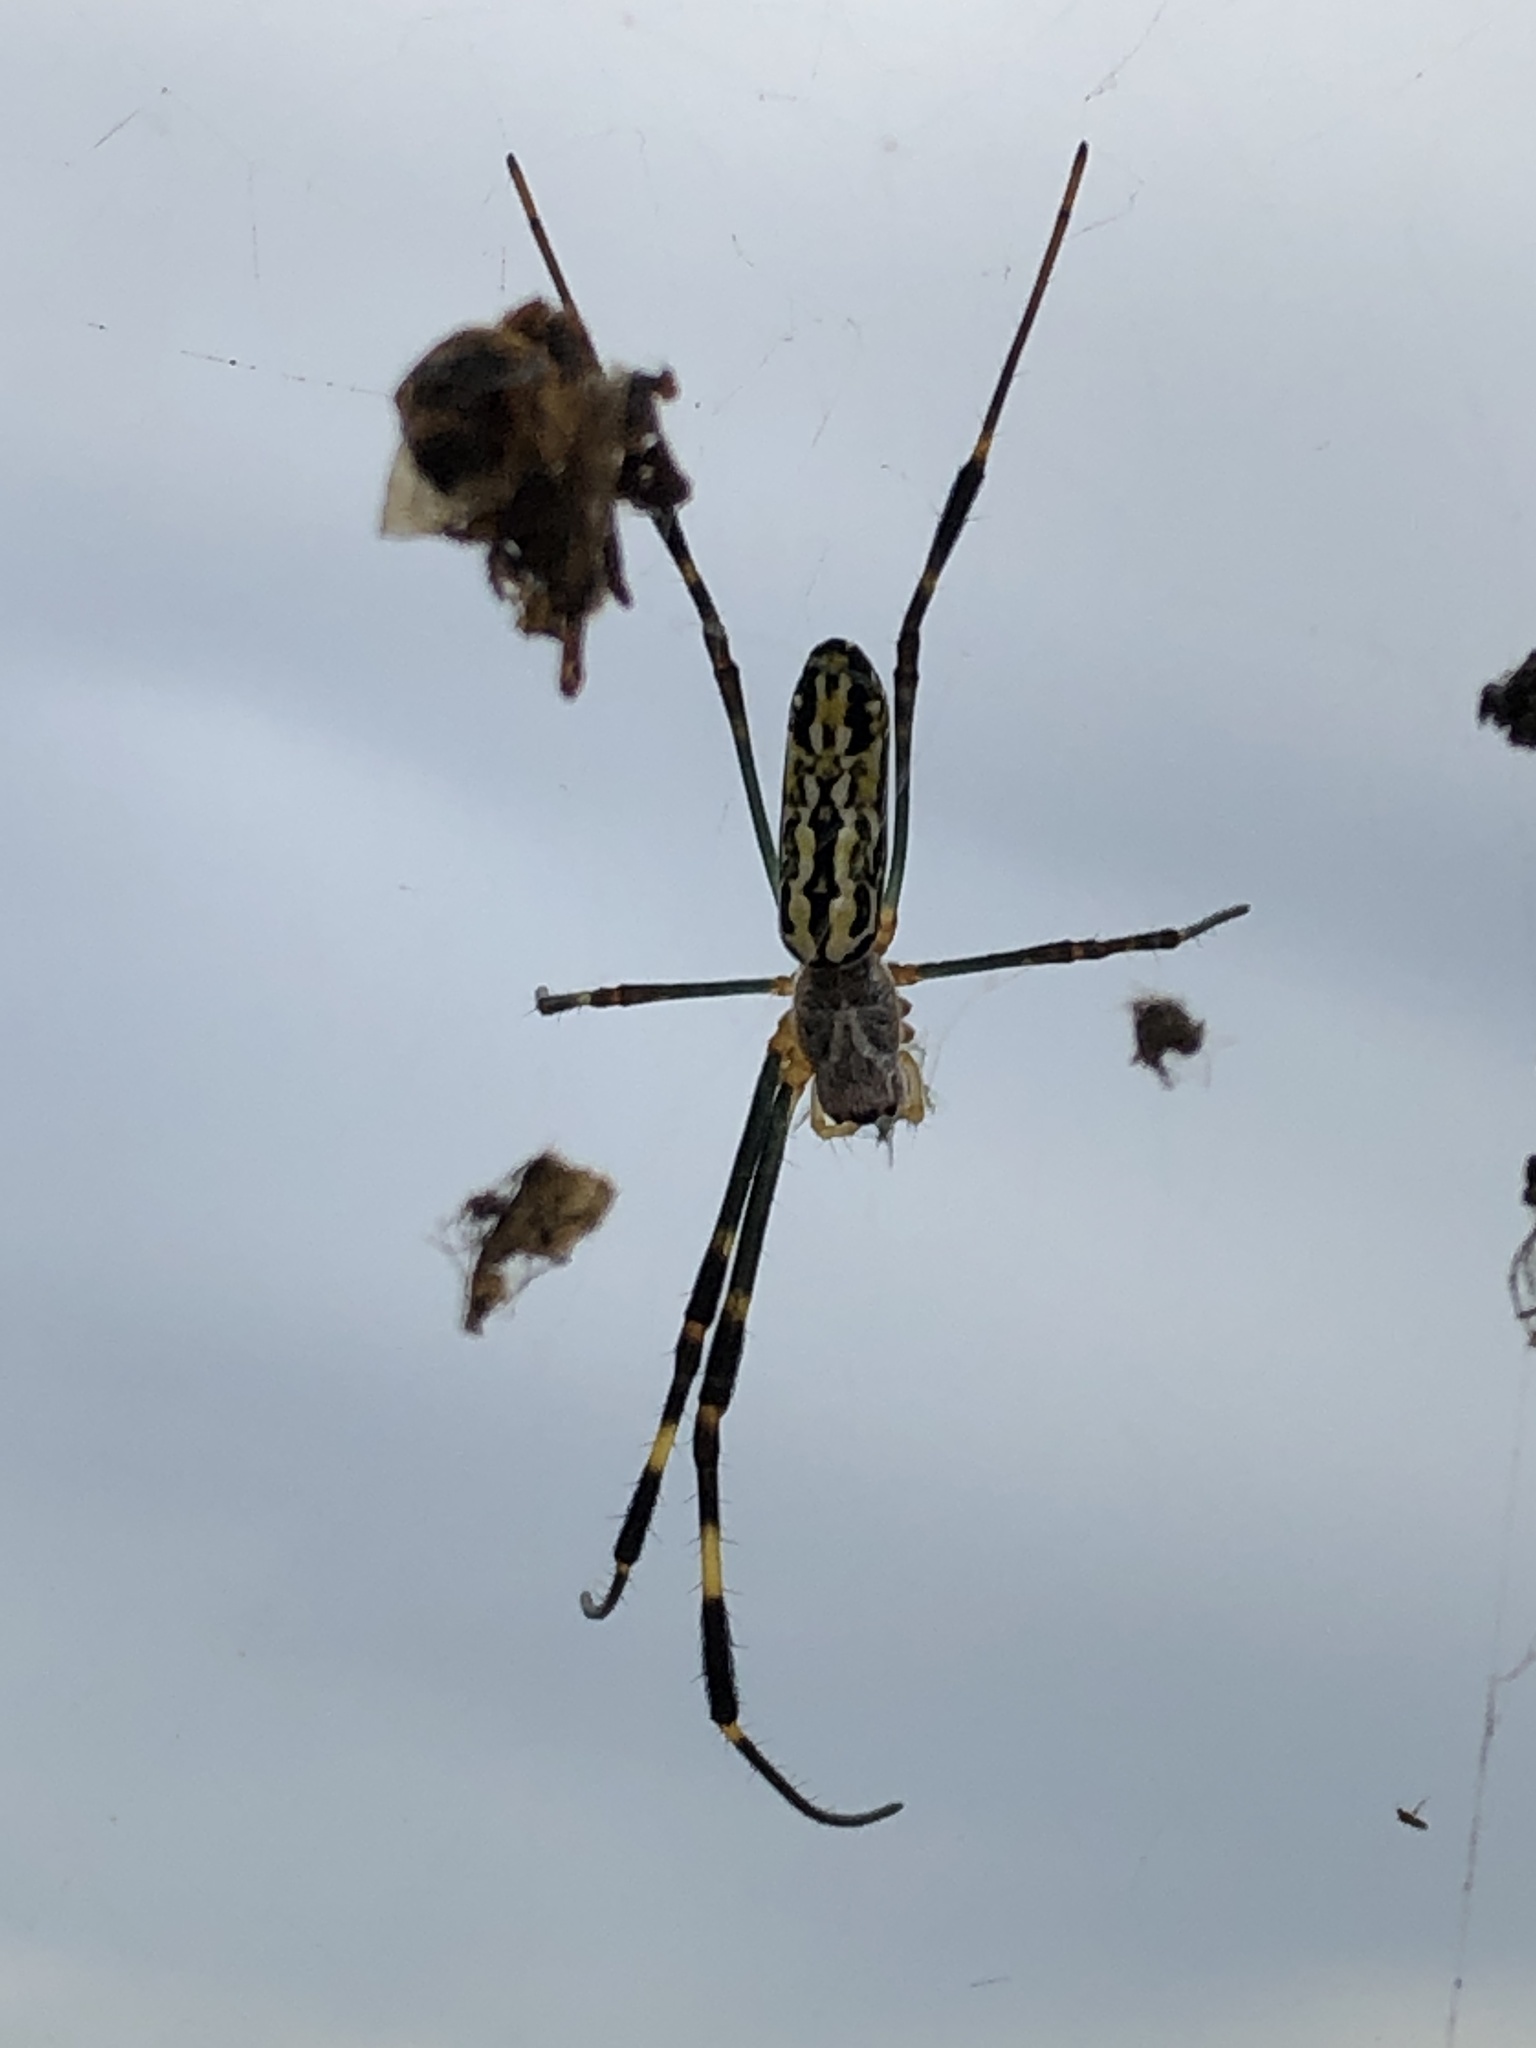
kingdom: Animalia
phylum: Arthropoda
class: Arachnida
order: Araneae
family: Araneidae
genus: Trichonephila
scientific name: Trichonephila clavata
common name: Jorō spider
